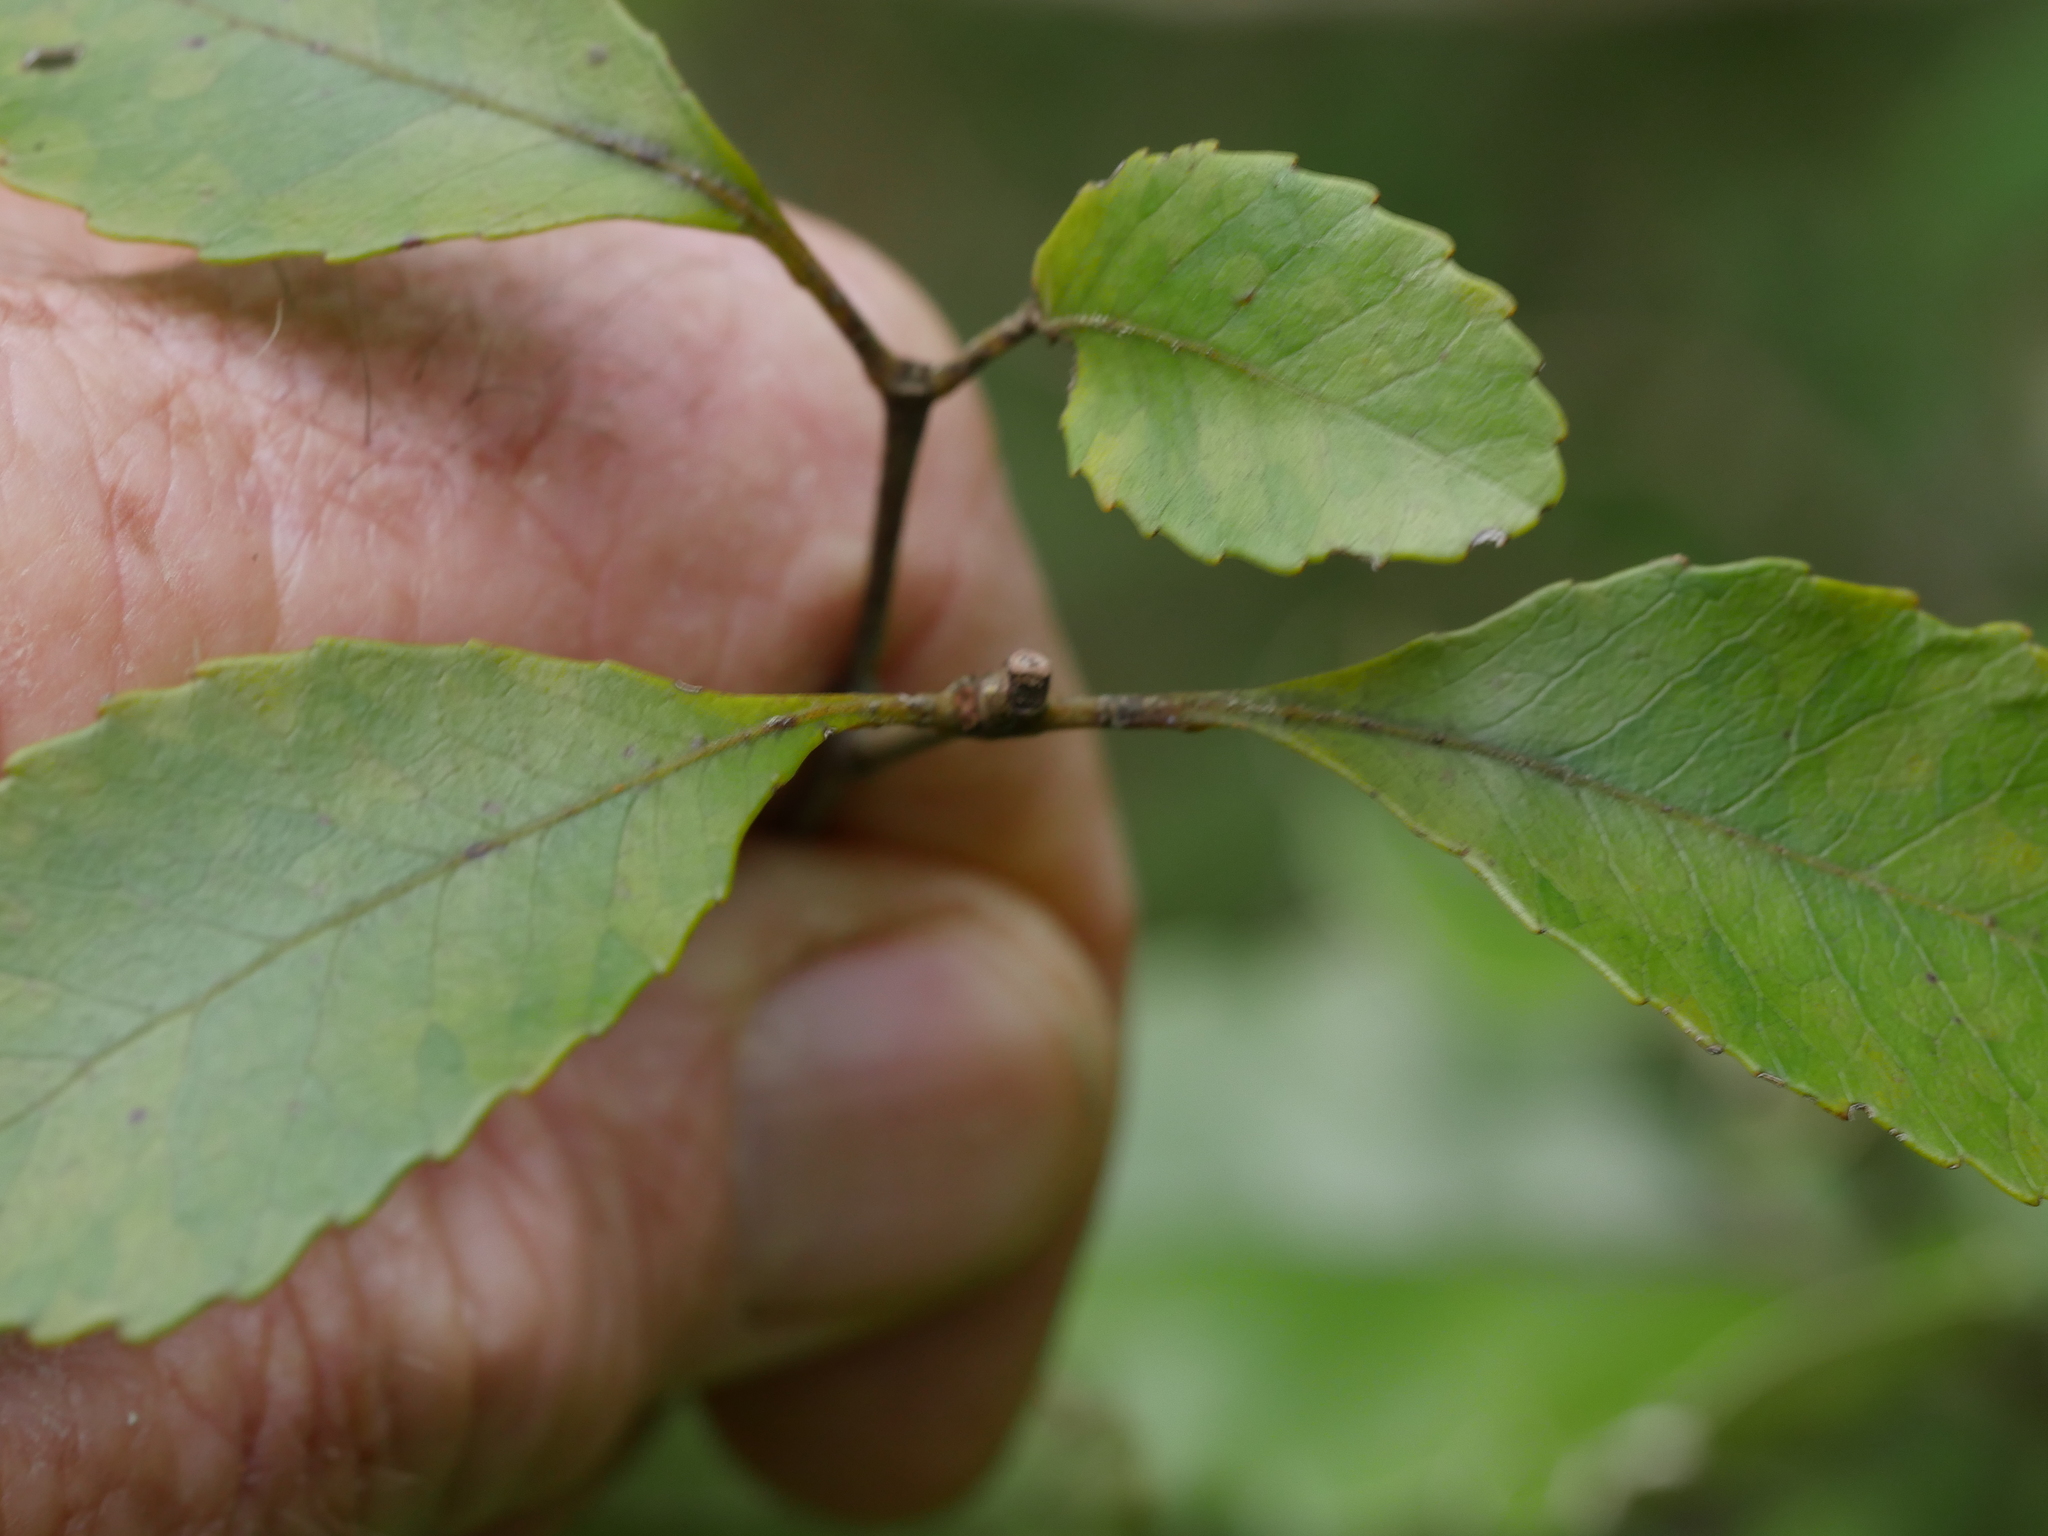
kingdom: Plantae
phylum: Tracheophyta
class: Magnoliopsida
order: Oxalidales
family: Cunoniaceae
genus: Pterophylla
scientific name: Pterophylla racemosa
